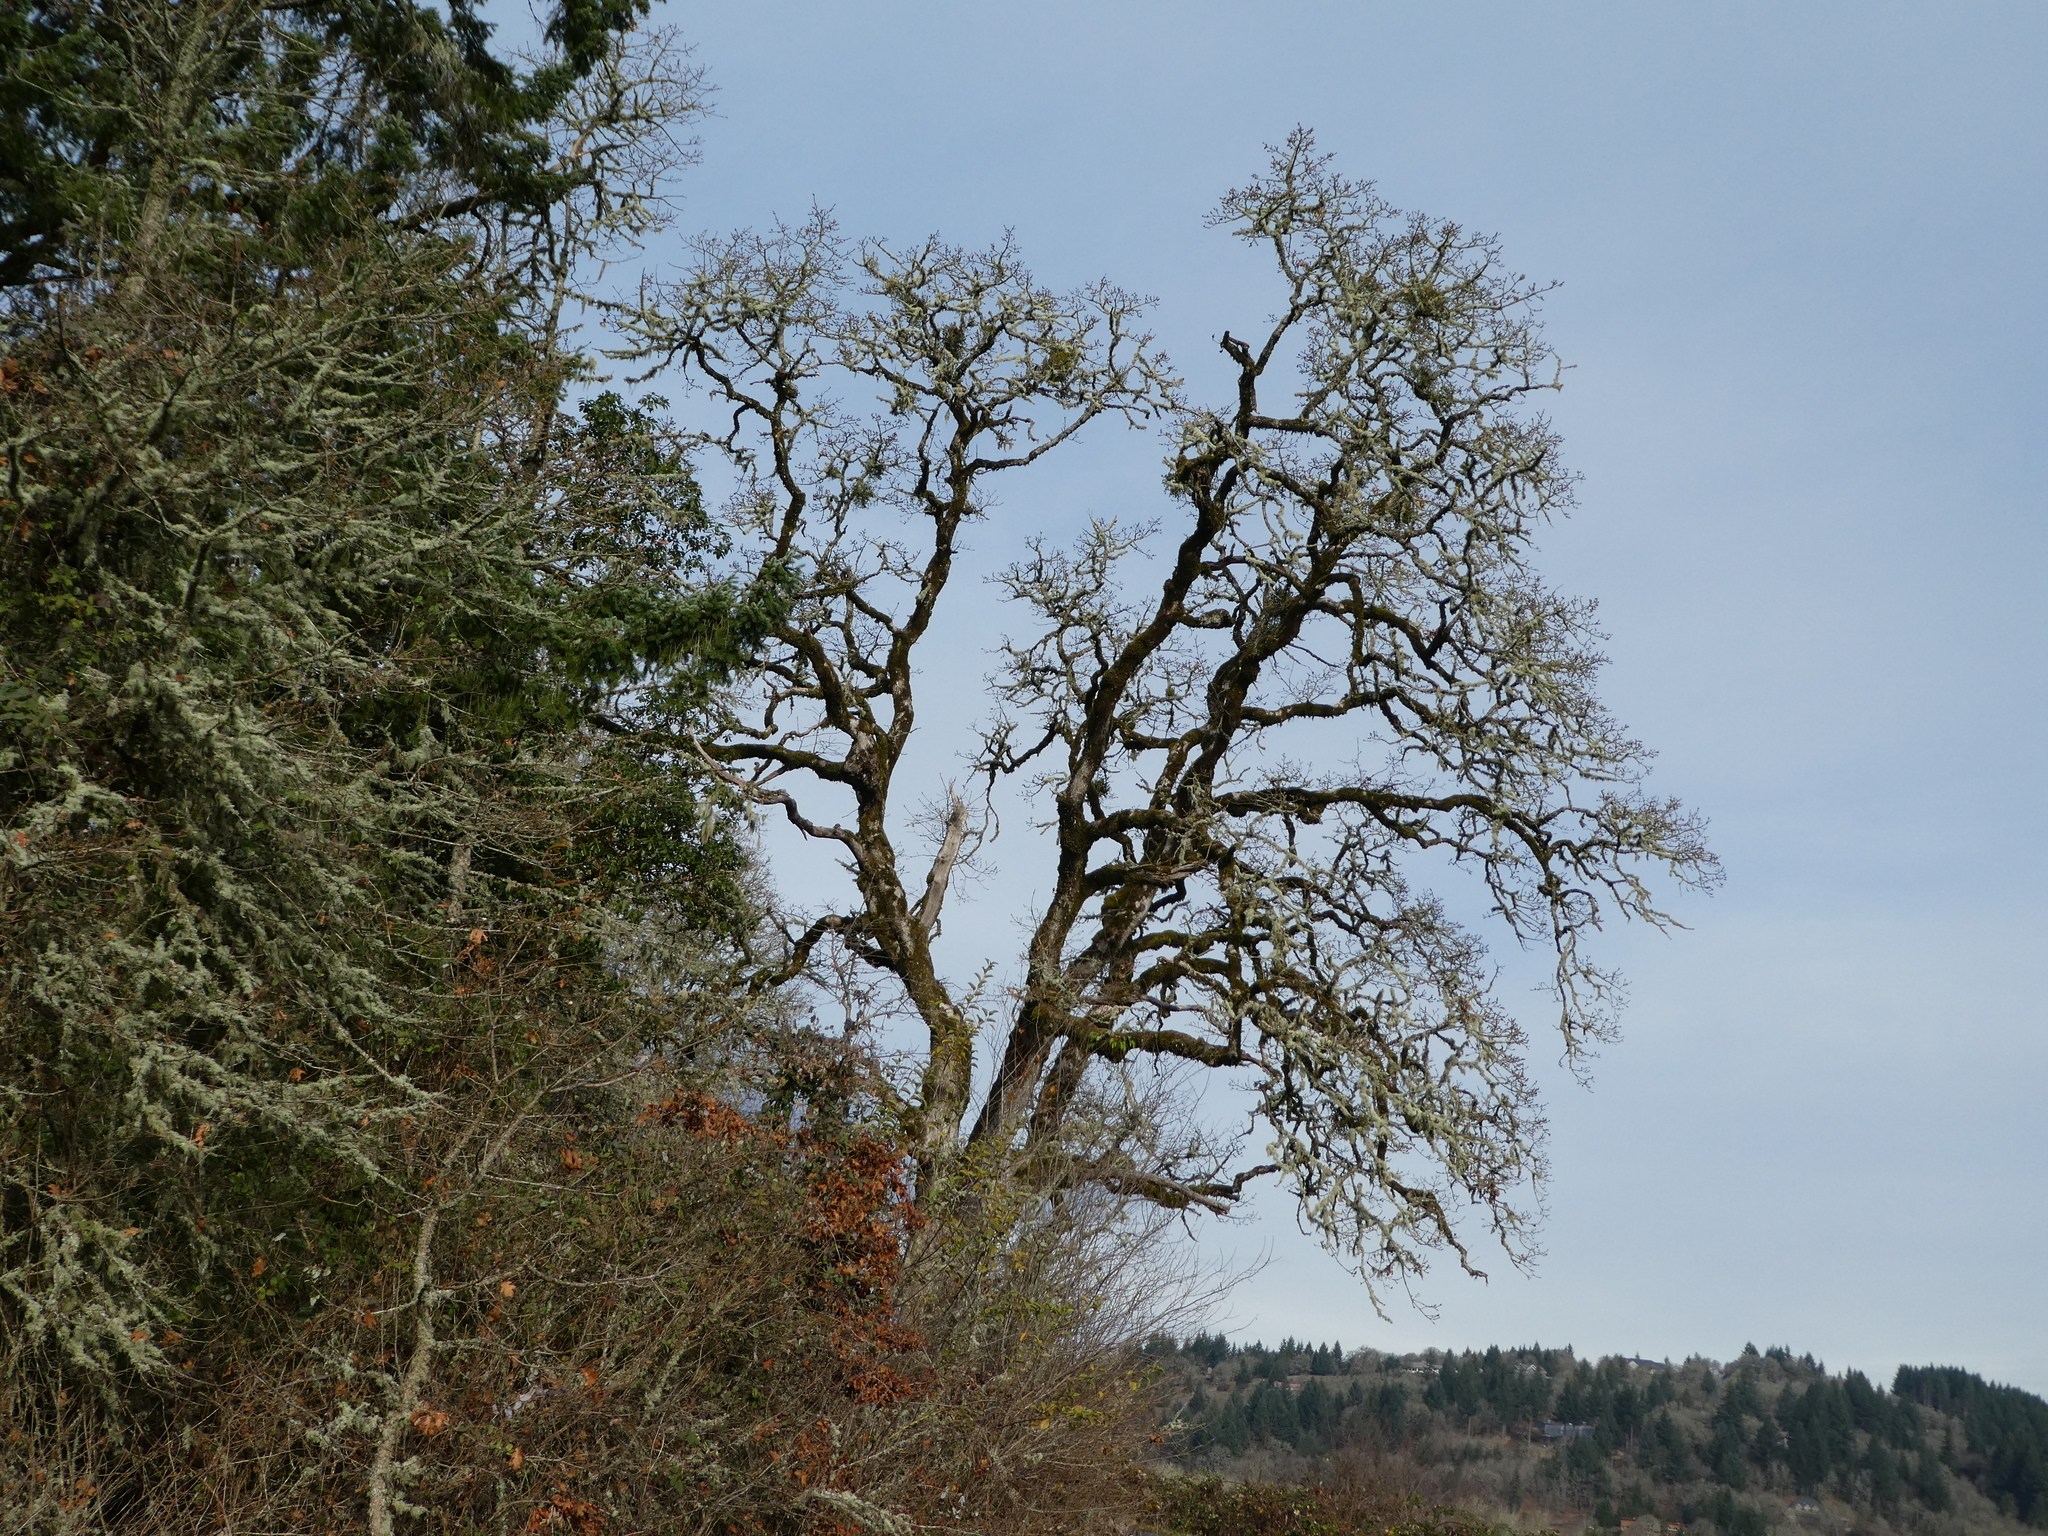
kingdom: Plantae
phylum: Tracheophyta
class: Magnoliopsida
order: Fagales
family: Fagaceae
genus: Quercus
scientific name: Quercus garryana
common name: Garry oak
